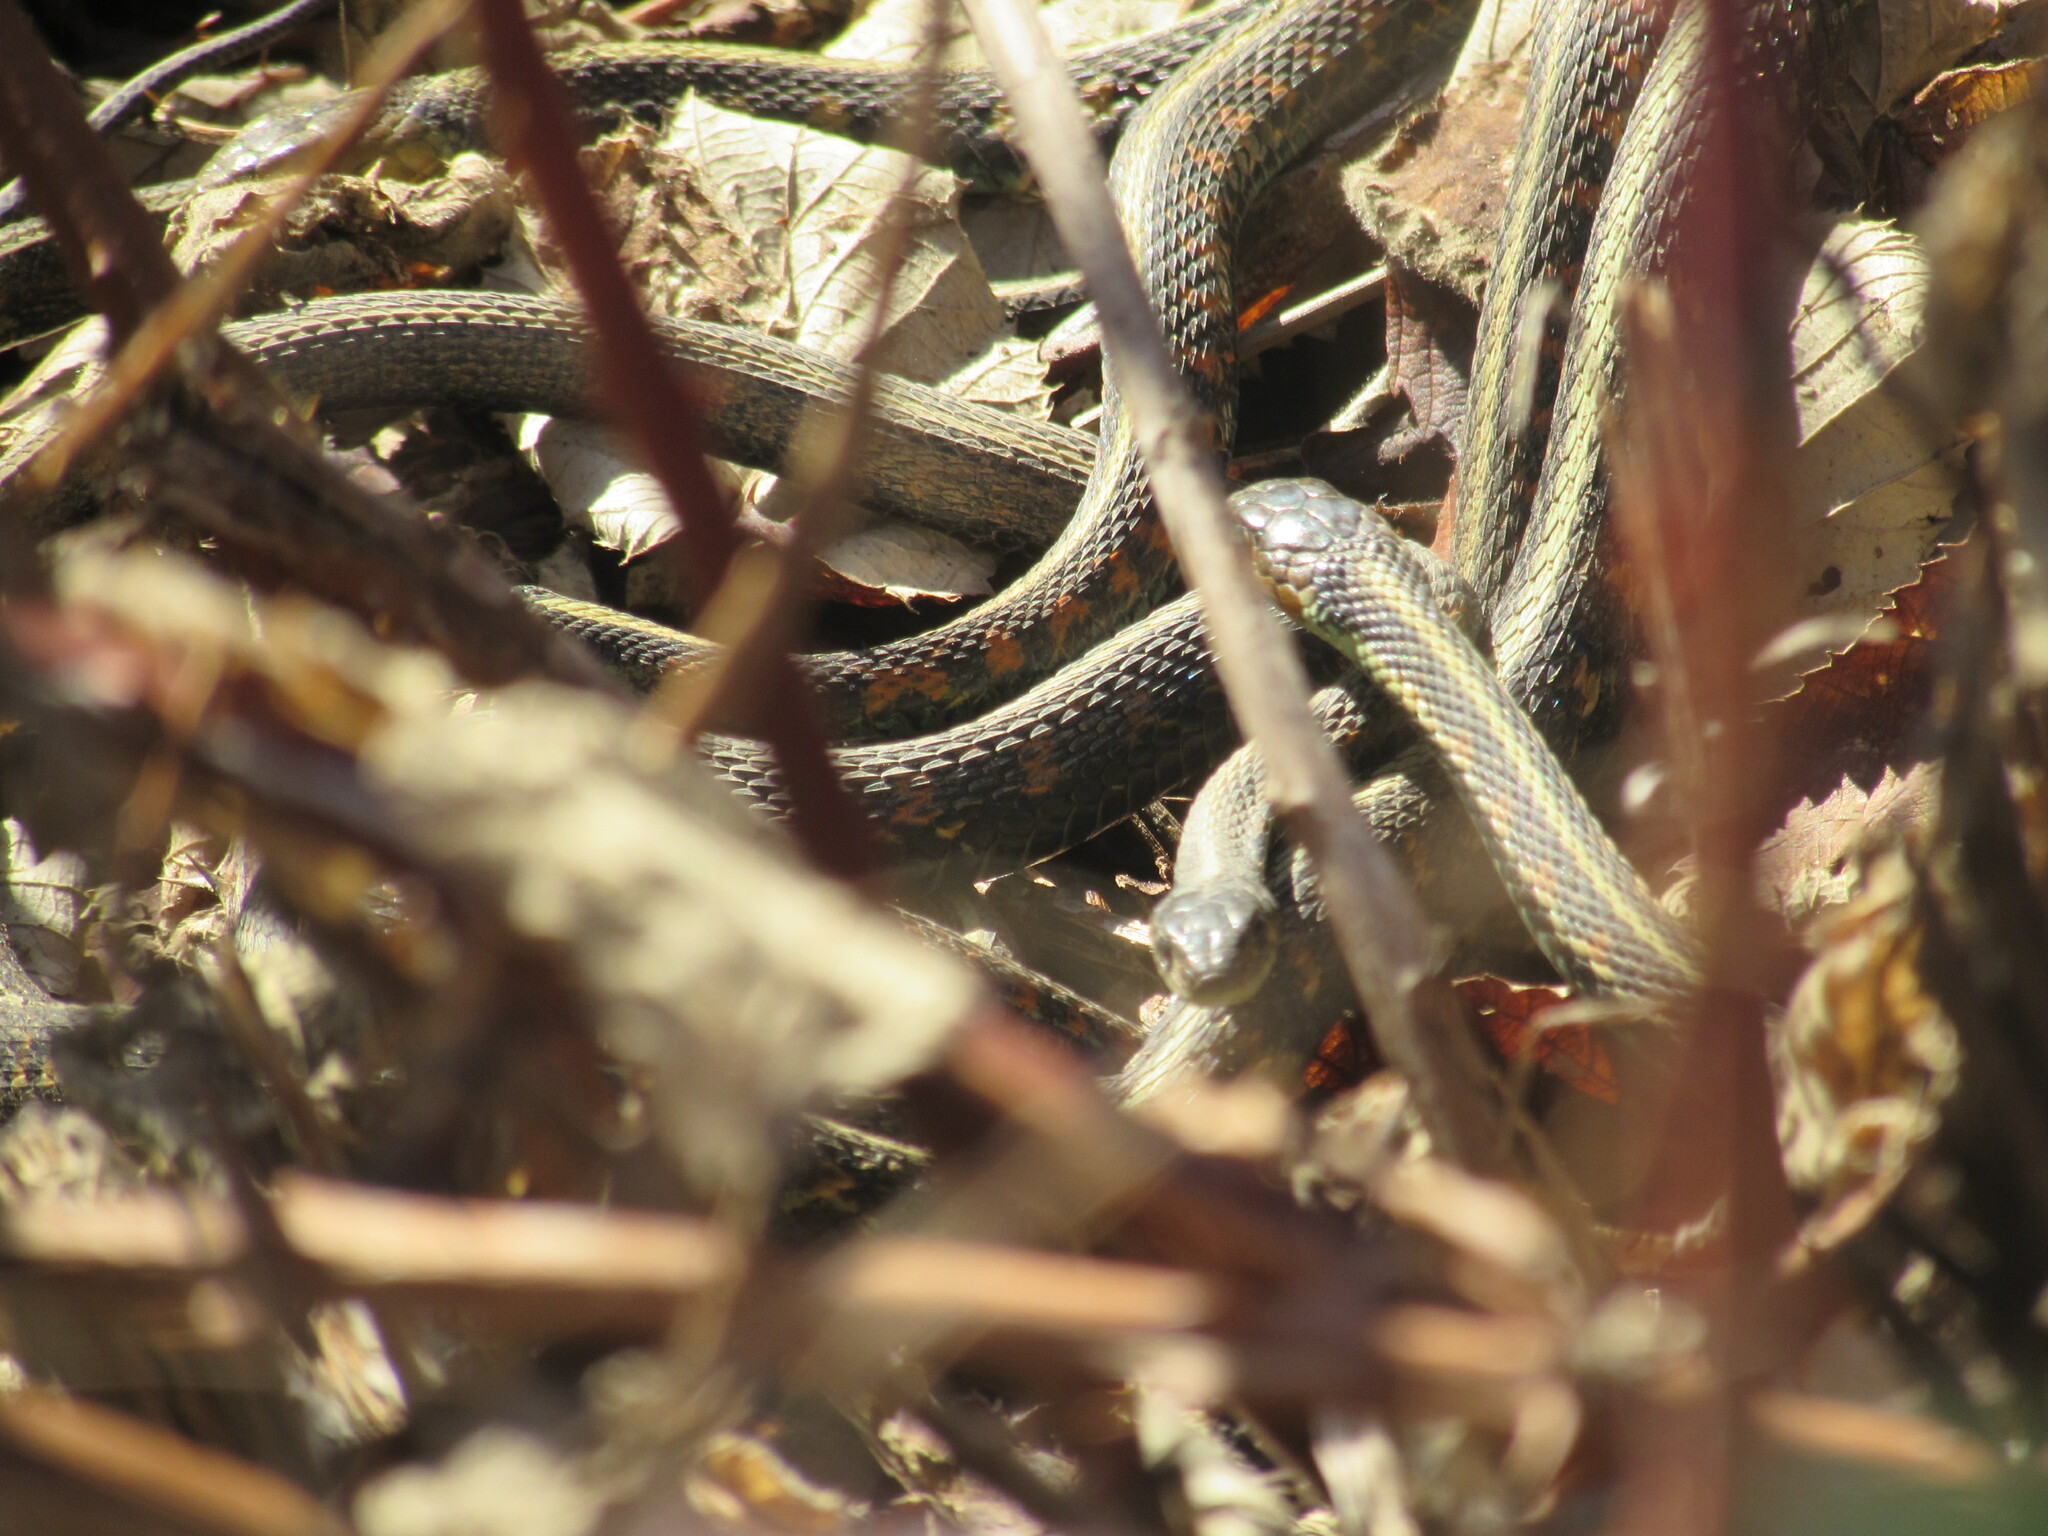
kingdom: Animalia
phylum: Chordata
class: Squamata
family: Colubridae
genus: Thamnophis
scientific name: Thamnophis sirtalis
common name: Common garter snake
